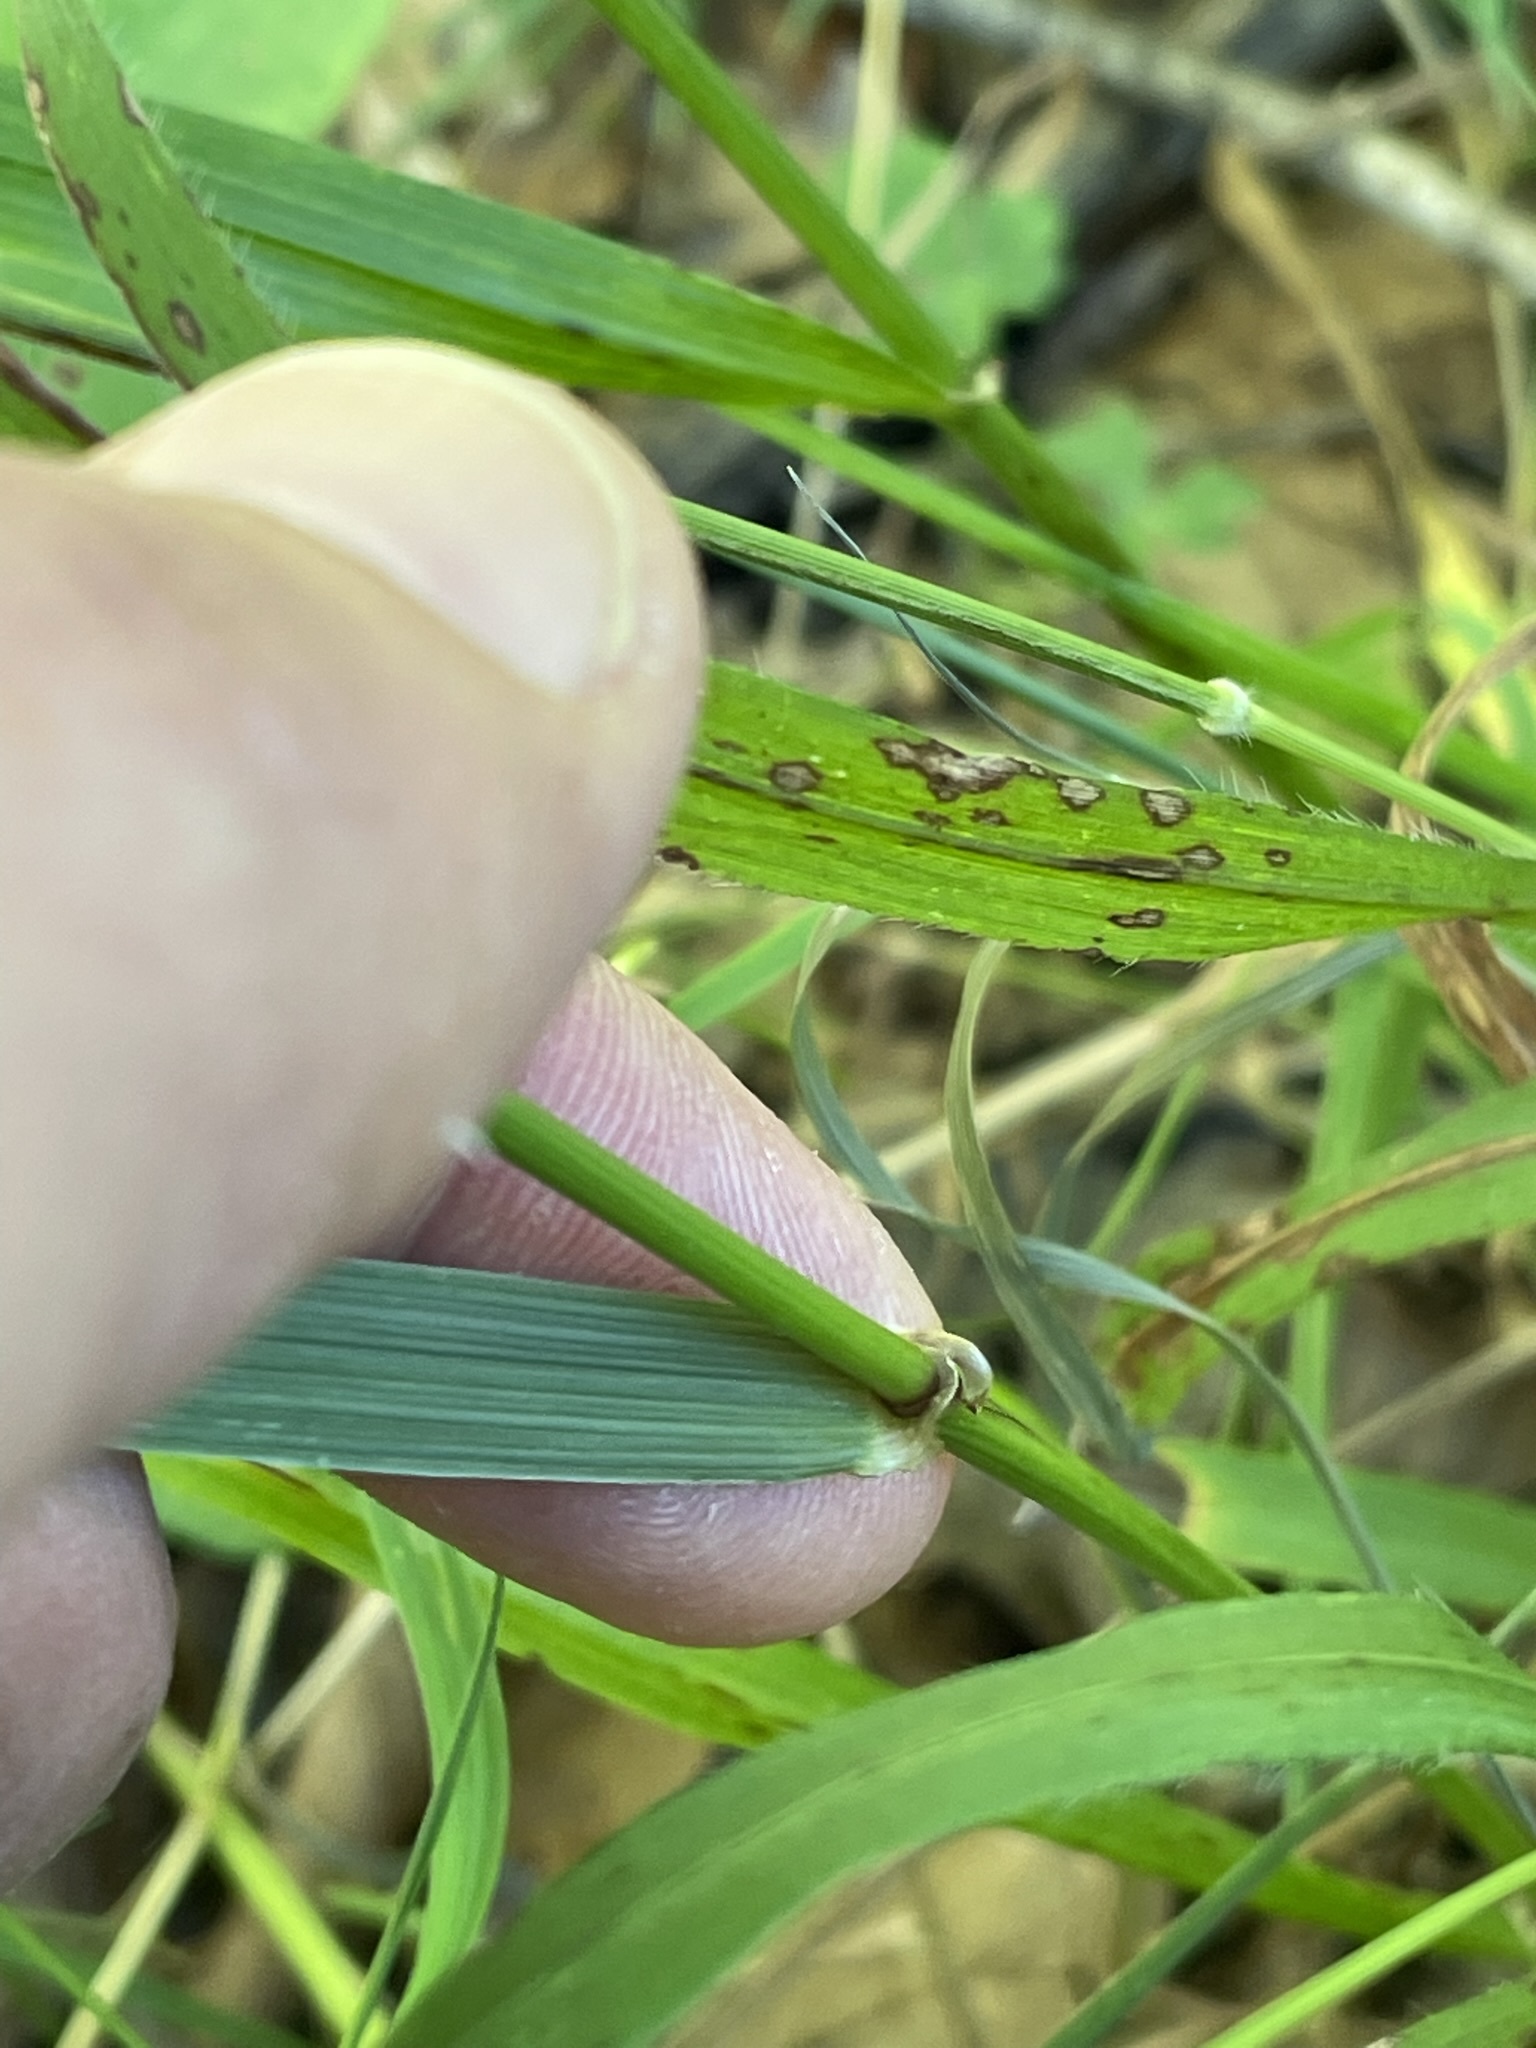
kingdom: Plantae
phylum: Tracheophyta
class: Liliopsida
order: Poales
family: Poaceae
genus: Lolium
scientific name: Lolium giganteum
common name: Giant fescue
